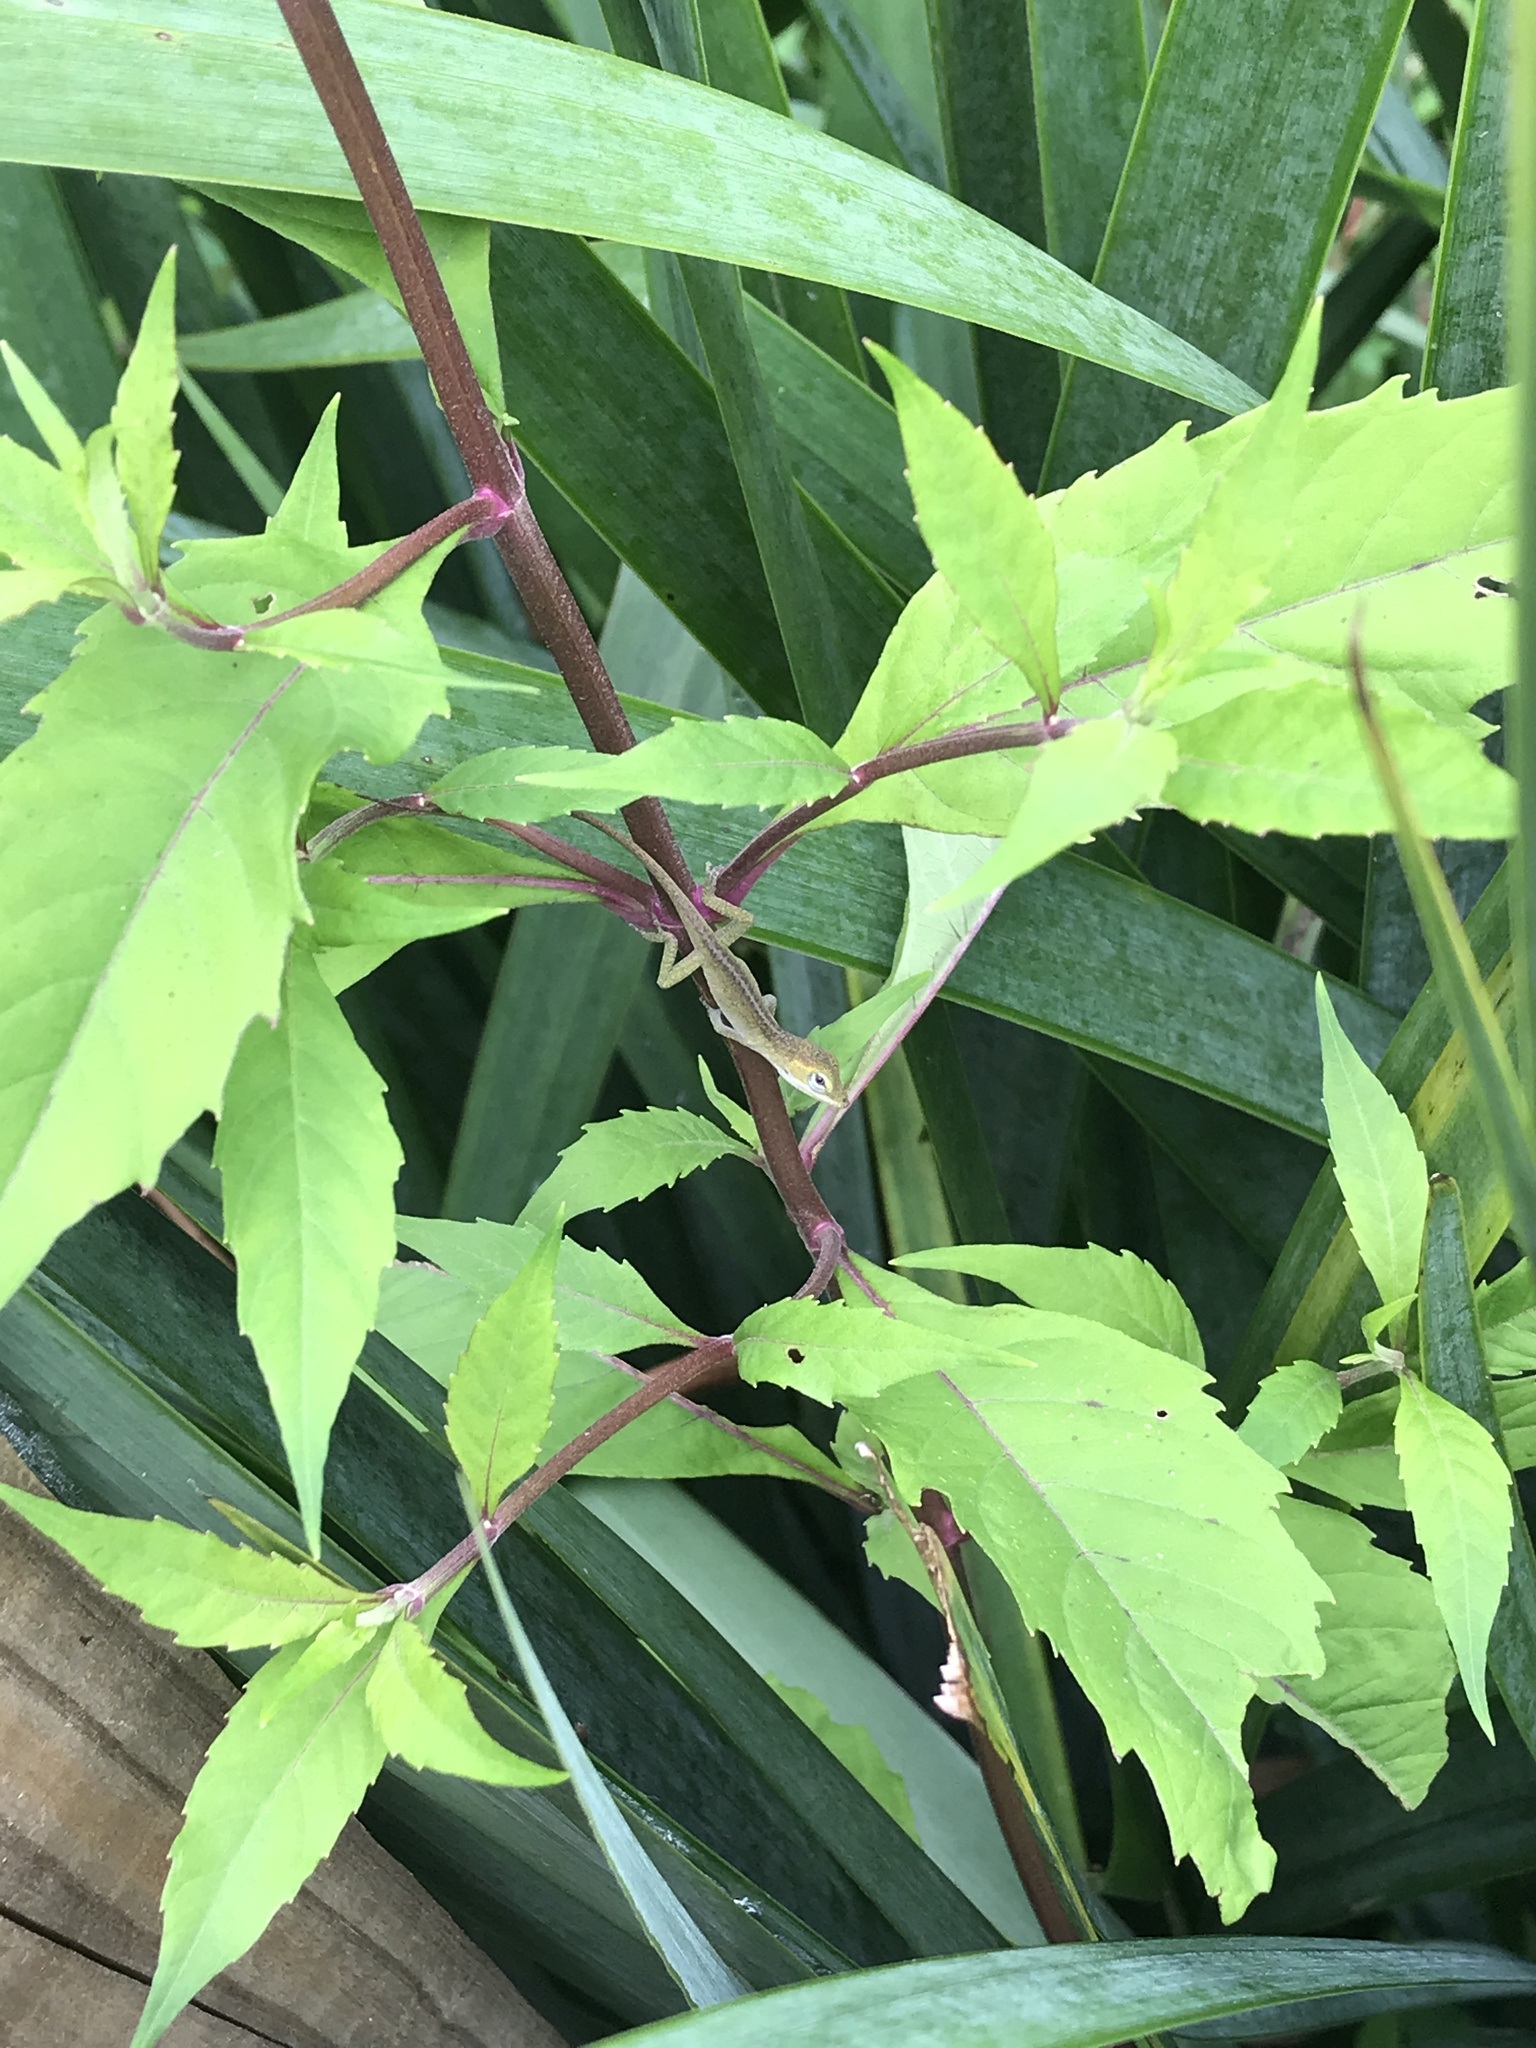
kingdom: Animalia
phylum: Chordata
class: Squamata
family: Dactyloidae
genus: Anolis
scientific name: Anolis carolinensis
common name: Green anole
